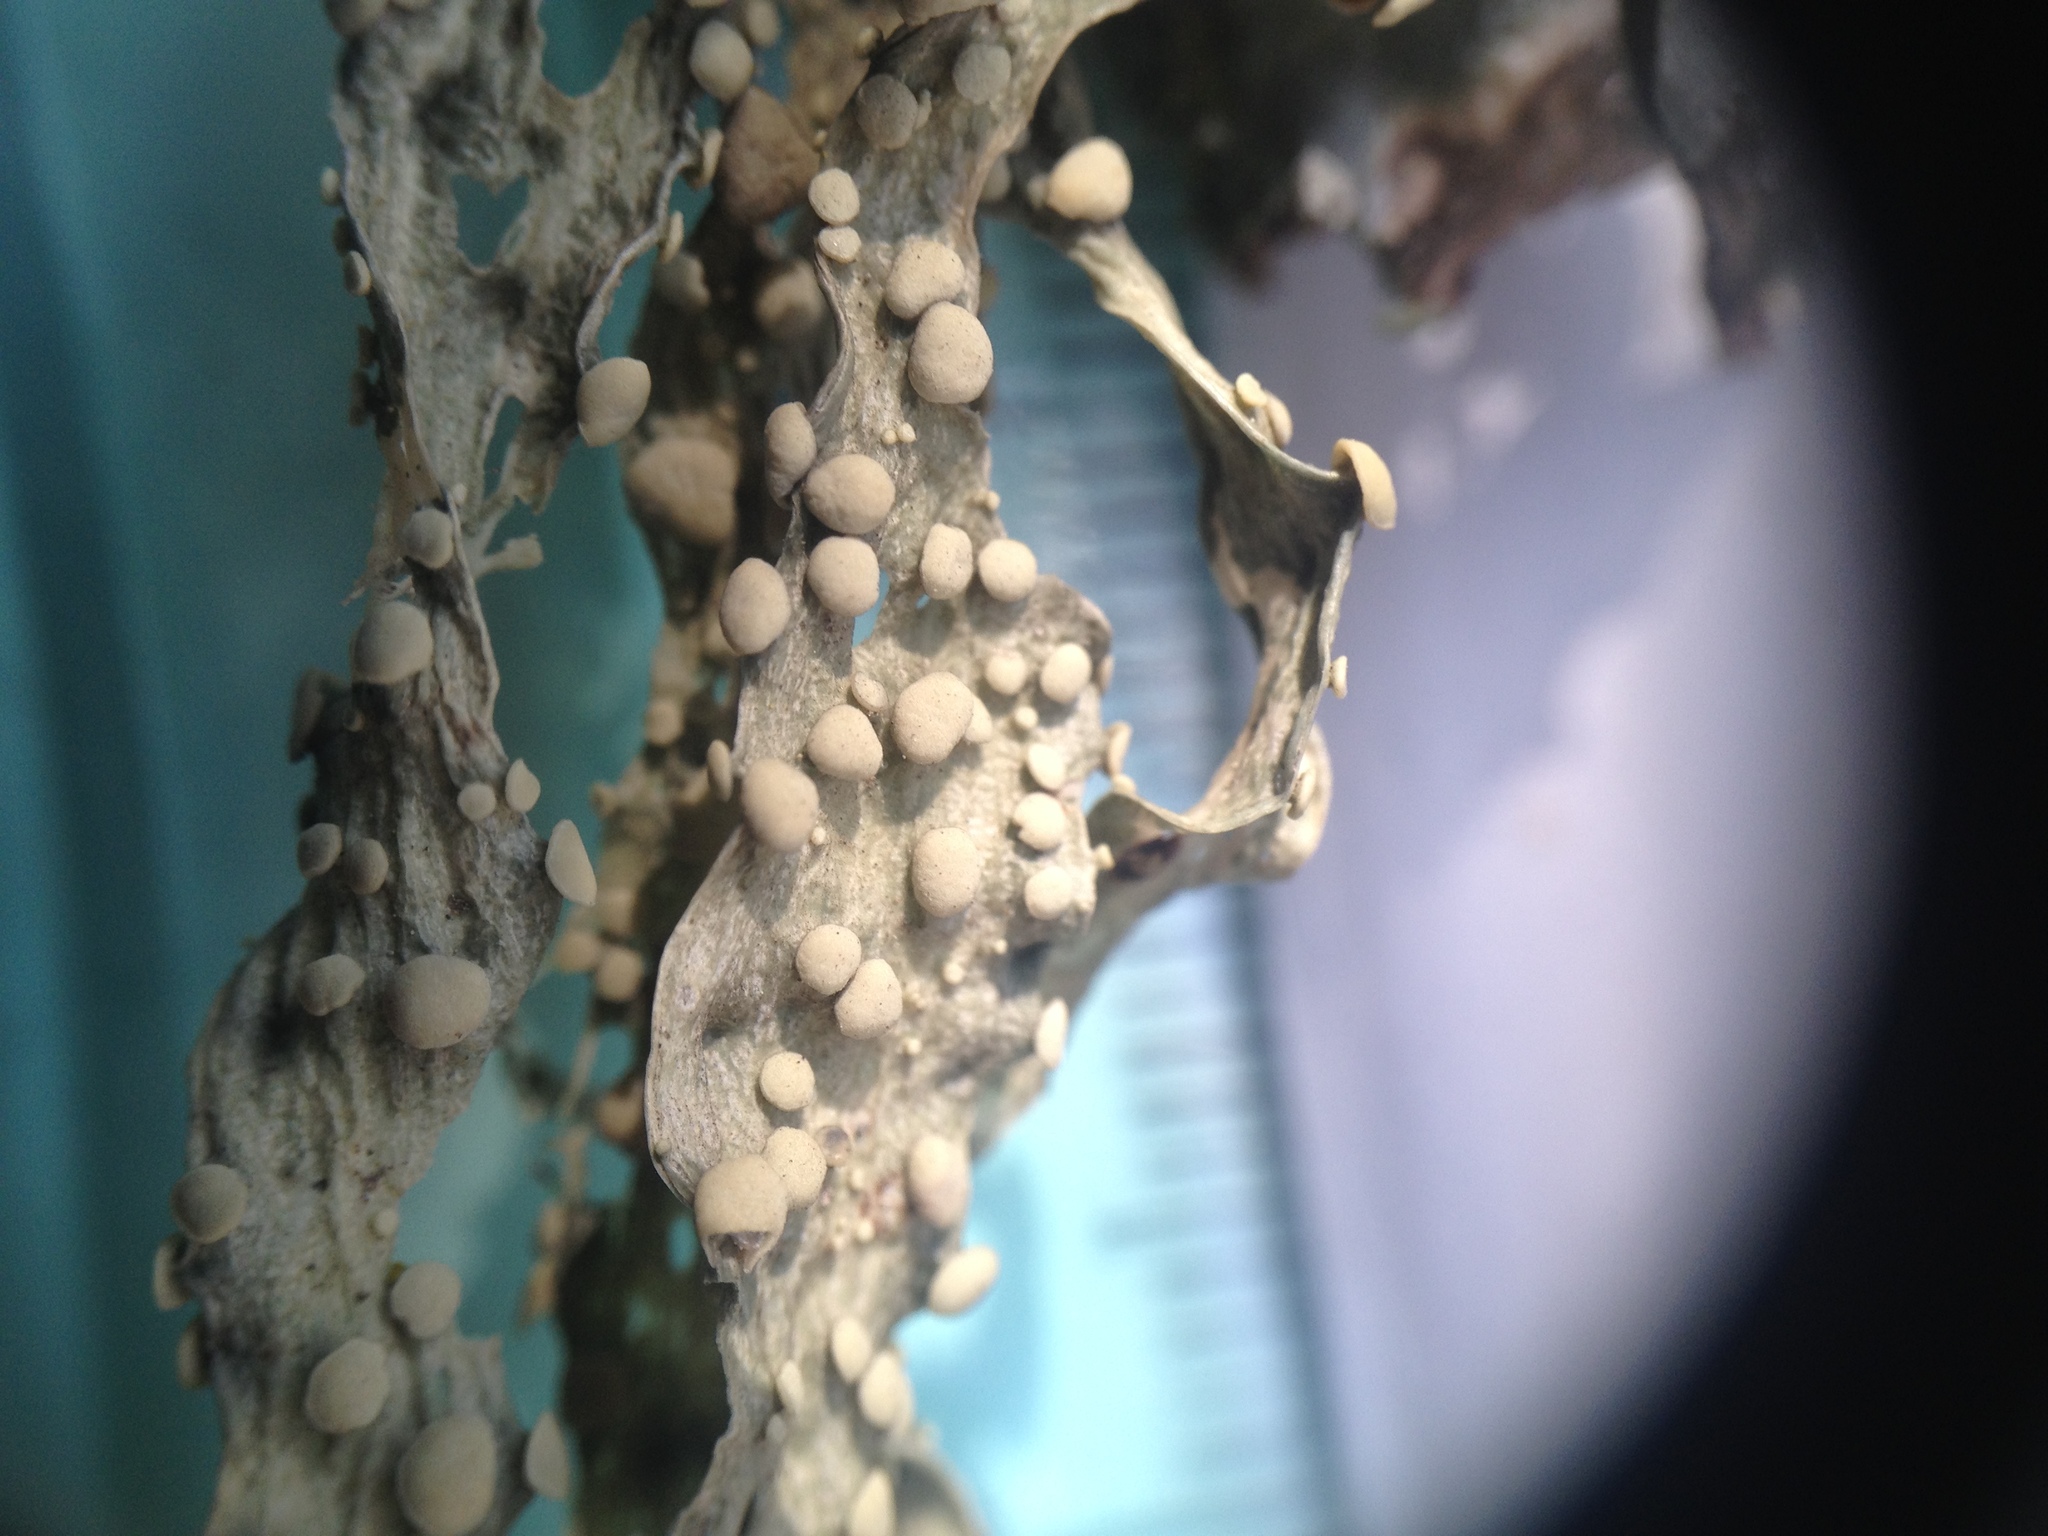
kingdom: Fungi
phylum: Ascomycota
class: Lecanoromycetes
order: Lecanorales
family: Ramalinaceae
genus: Ramalina
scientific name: Ramalina celastri
